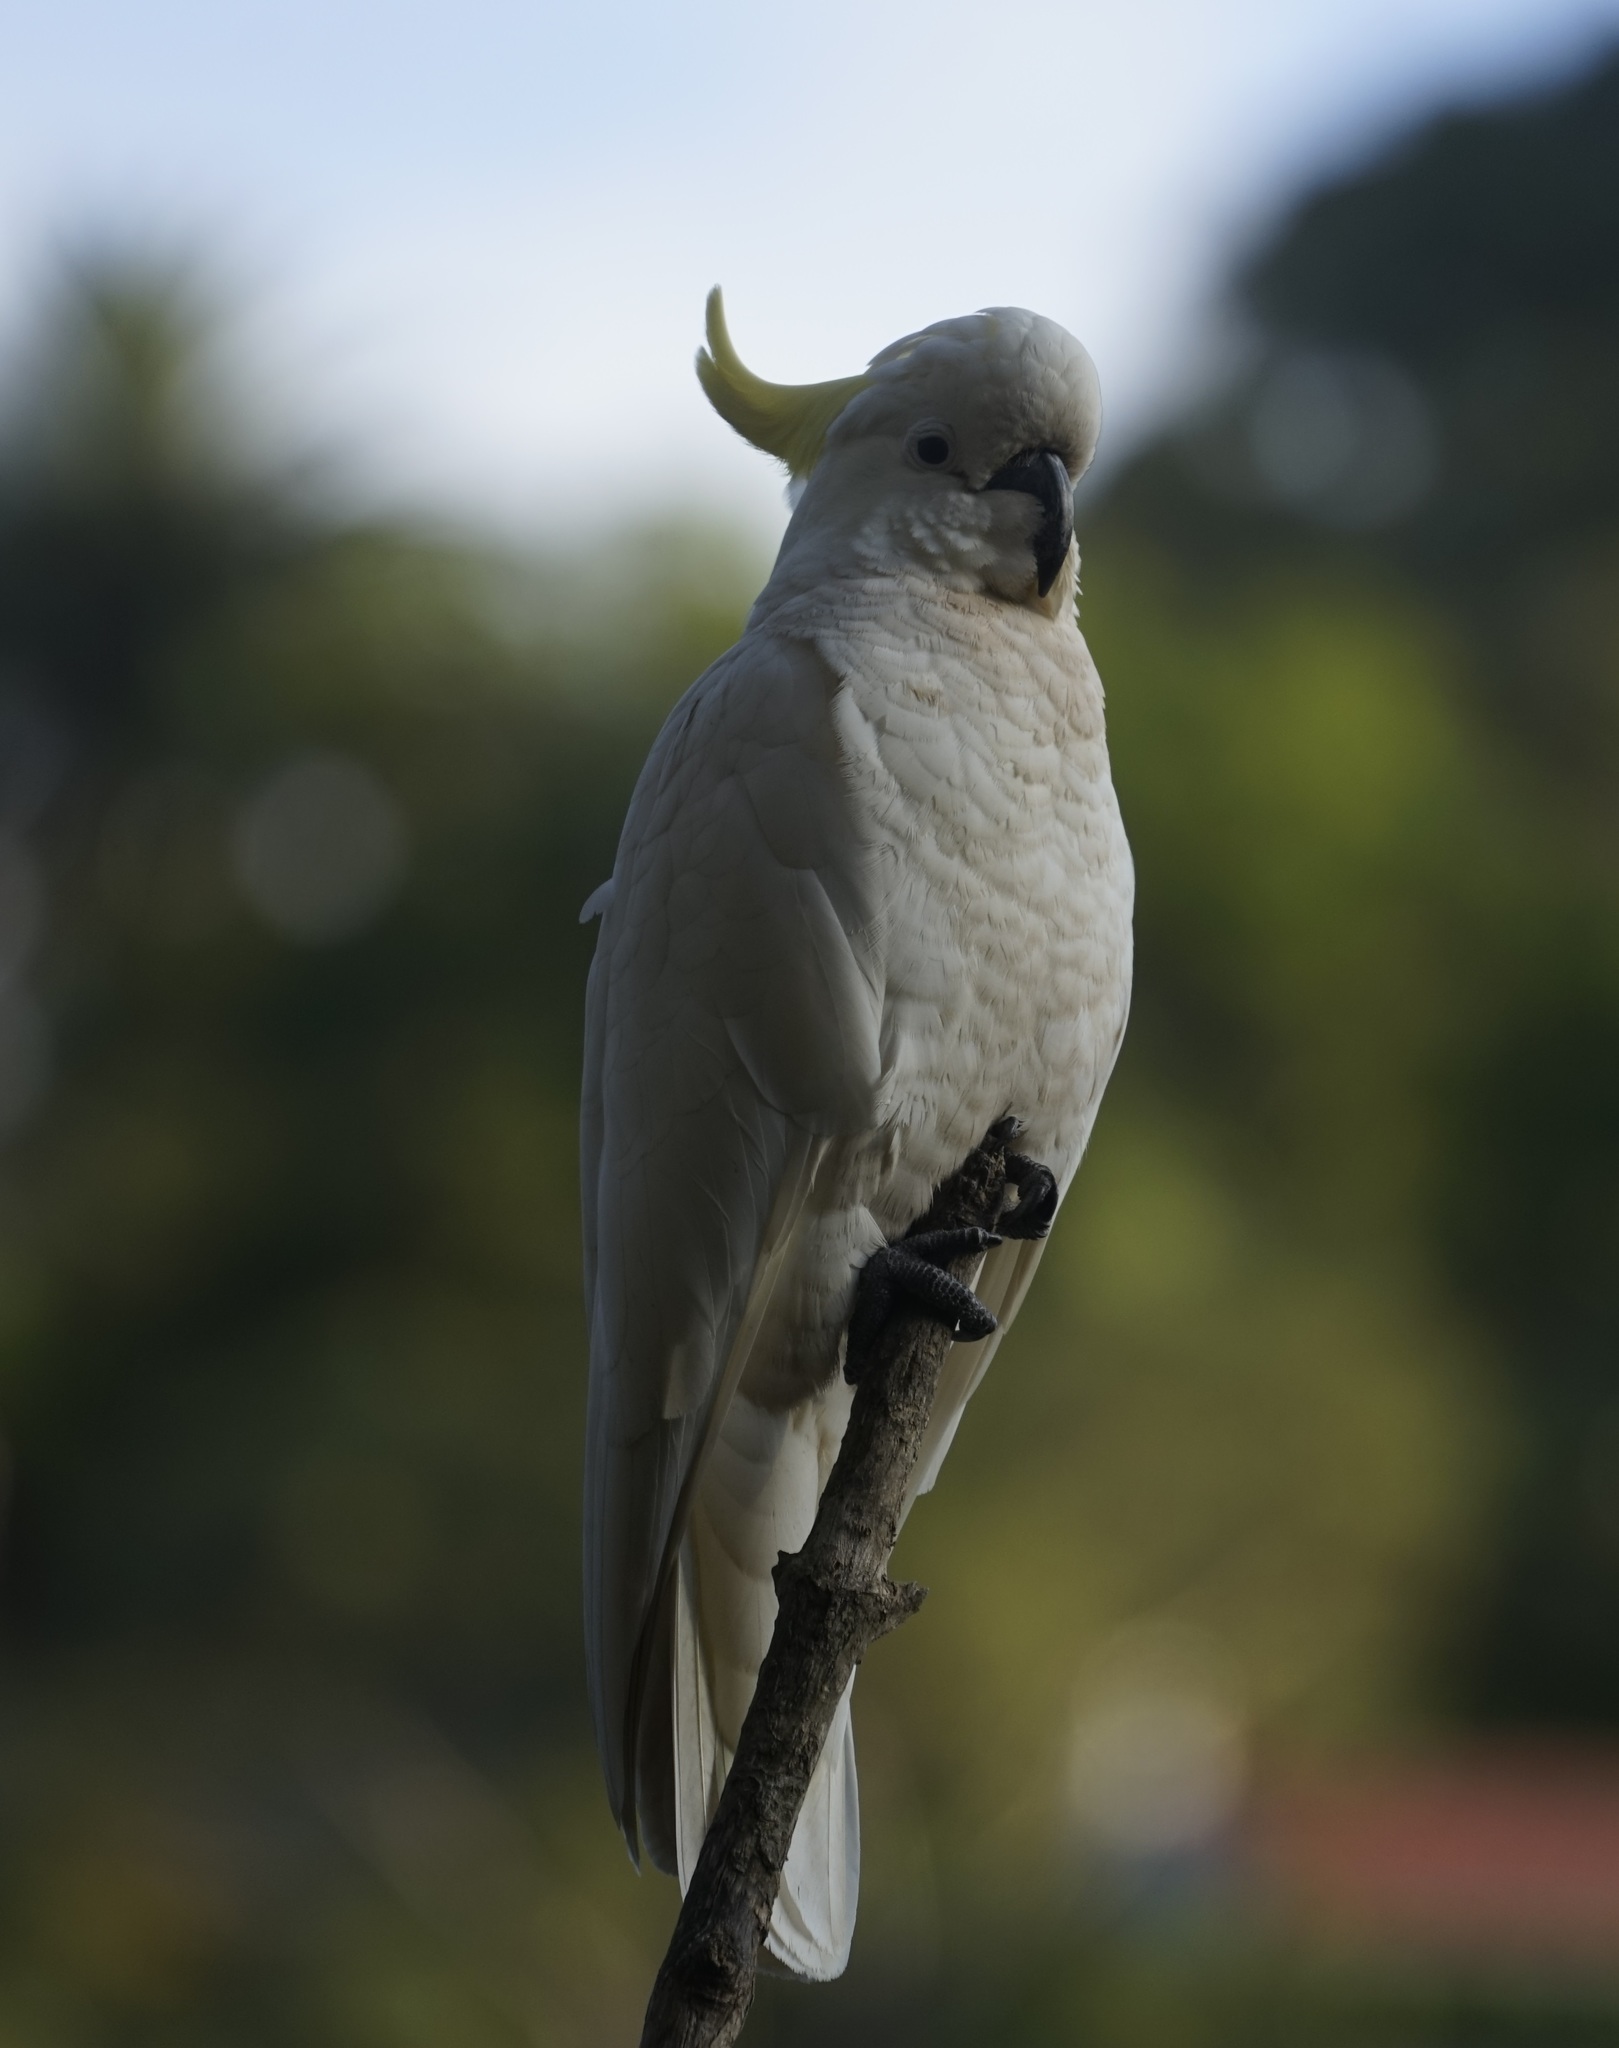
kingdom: Animalia
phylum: Chordata
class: Aves
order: Psittaciformes
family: Psittacidae
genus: Cacatua
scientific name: Cacatua galerita
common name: Sulphur-crested cockatoo
